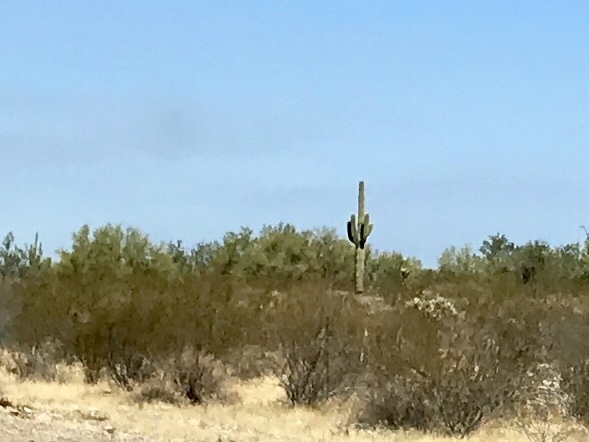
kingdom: Plantae
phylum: Tracheophyta
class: Magnoliopsida
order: Caryophyllales
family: Cactaceae
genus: Carnegiea
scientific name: Carnegiea gigantea
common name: Saguaro
